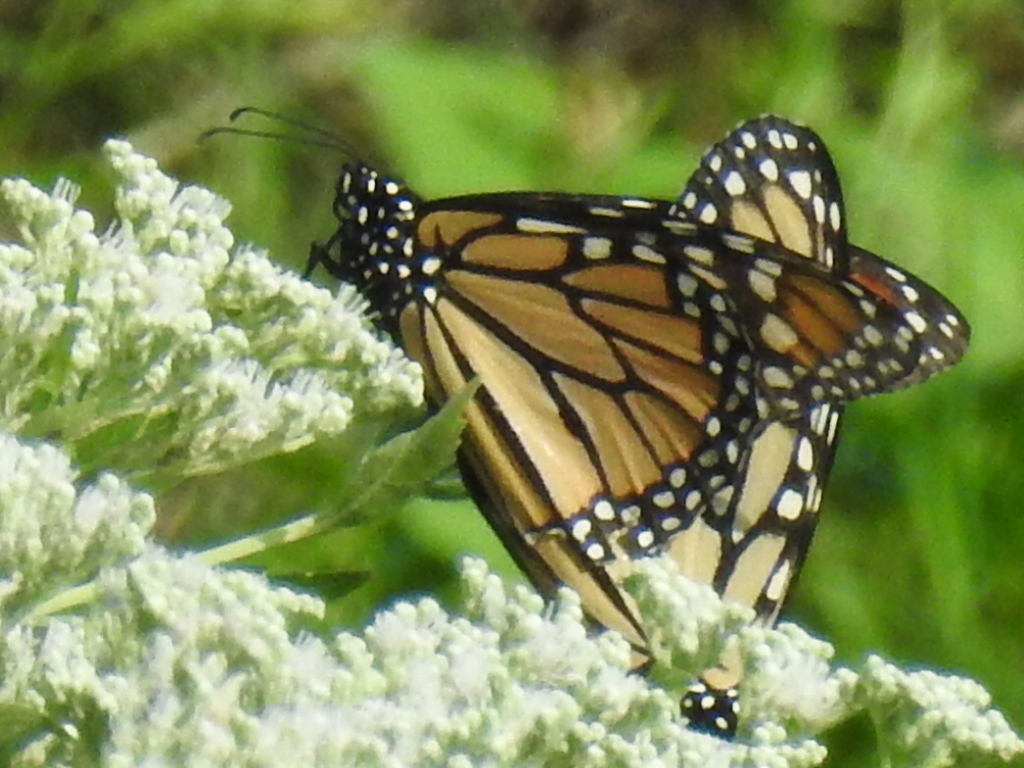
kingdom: Animalia
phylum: Arthropoda
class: Insecta
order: Lepidoptera
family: Nymphalidae
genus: Danaus
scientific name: Danaus plexippus
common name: Monarch
